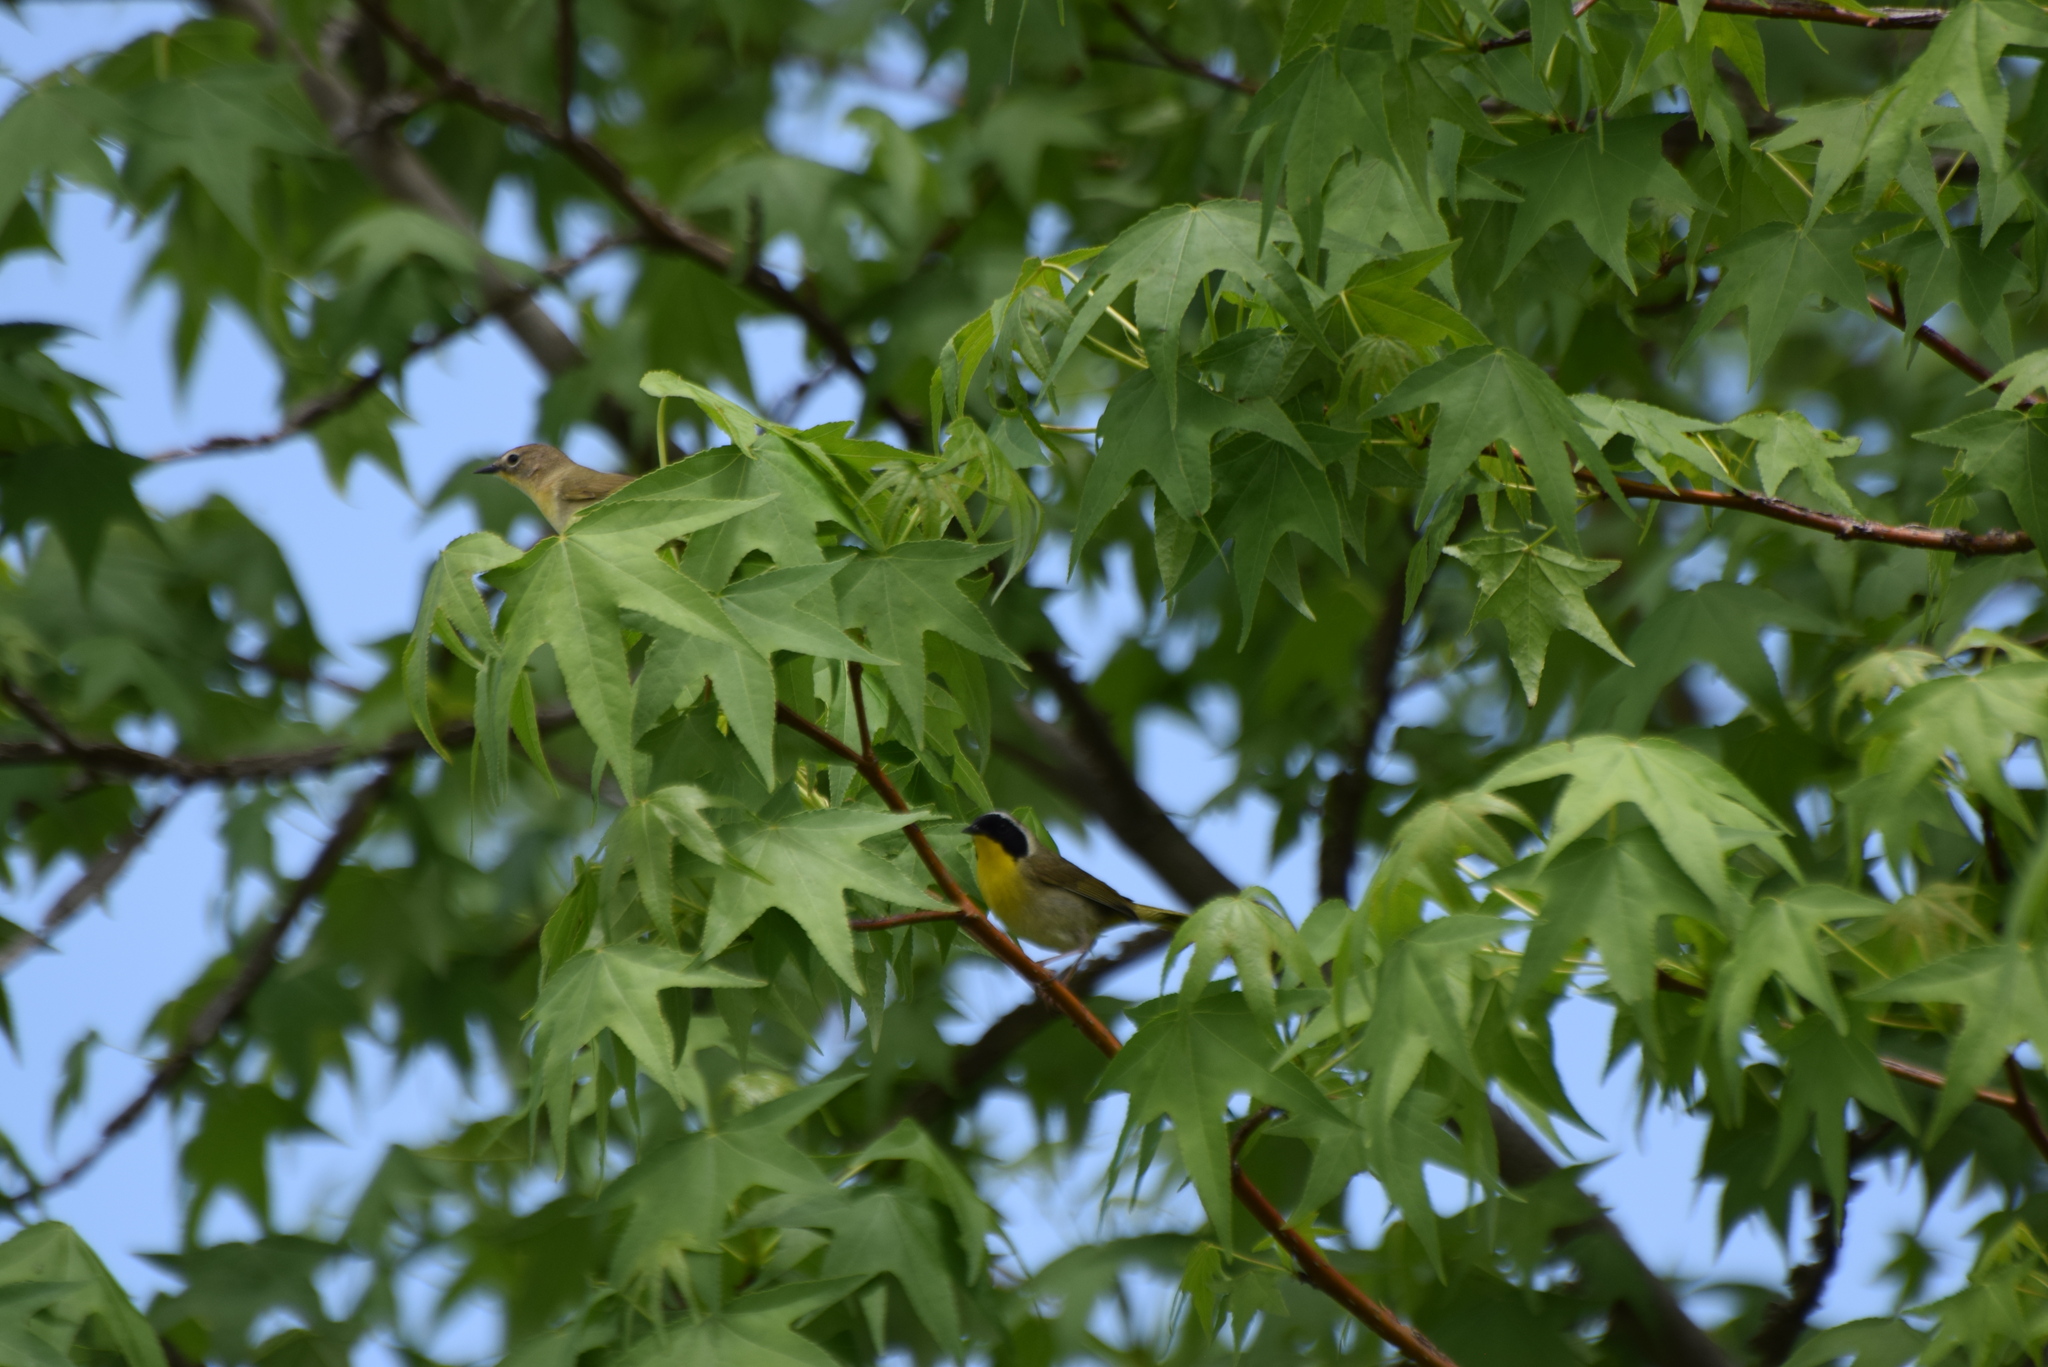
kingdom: Animalia
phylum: Chordata
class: Aves
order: Passeriformes
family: Parulidae
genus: Geothlypis
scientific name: Geothlypis trichas
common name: Common yellowthroat
